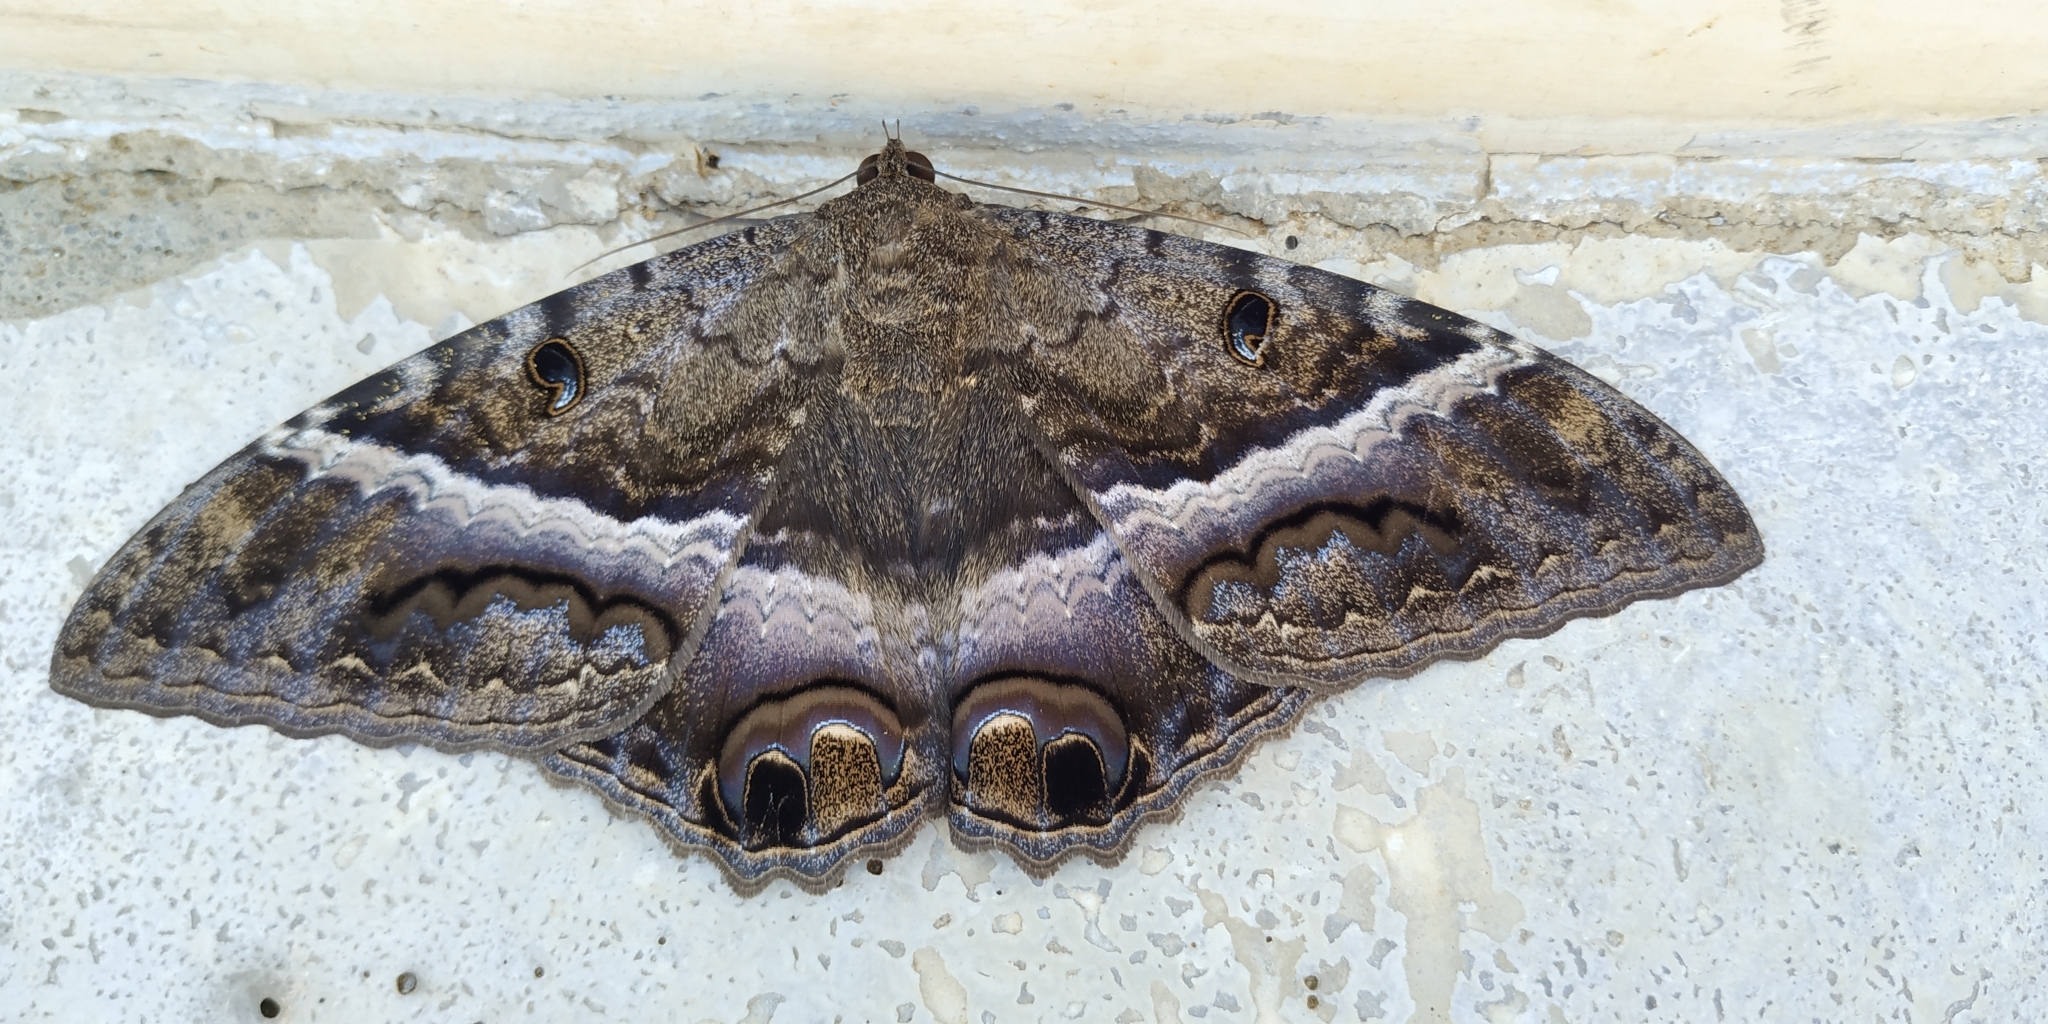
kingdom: Animalia
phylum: Arthropoda
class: Insecta
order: Lepidoptera
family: Erebidae
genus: Ascalapha
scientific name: Ascalapha odorata
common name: Black witch
